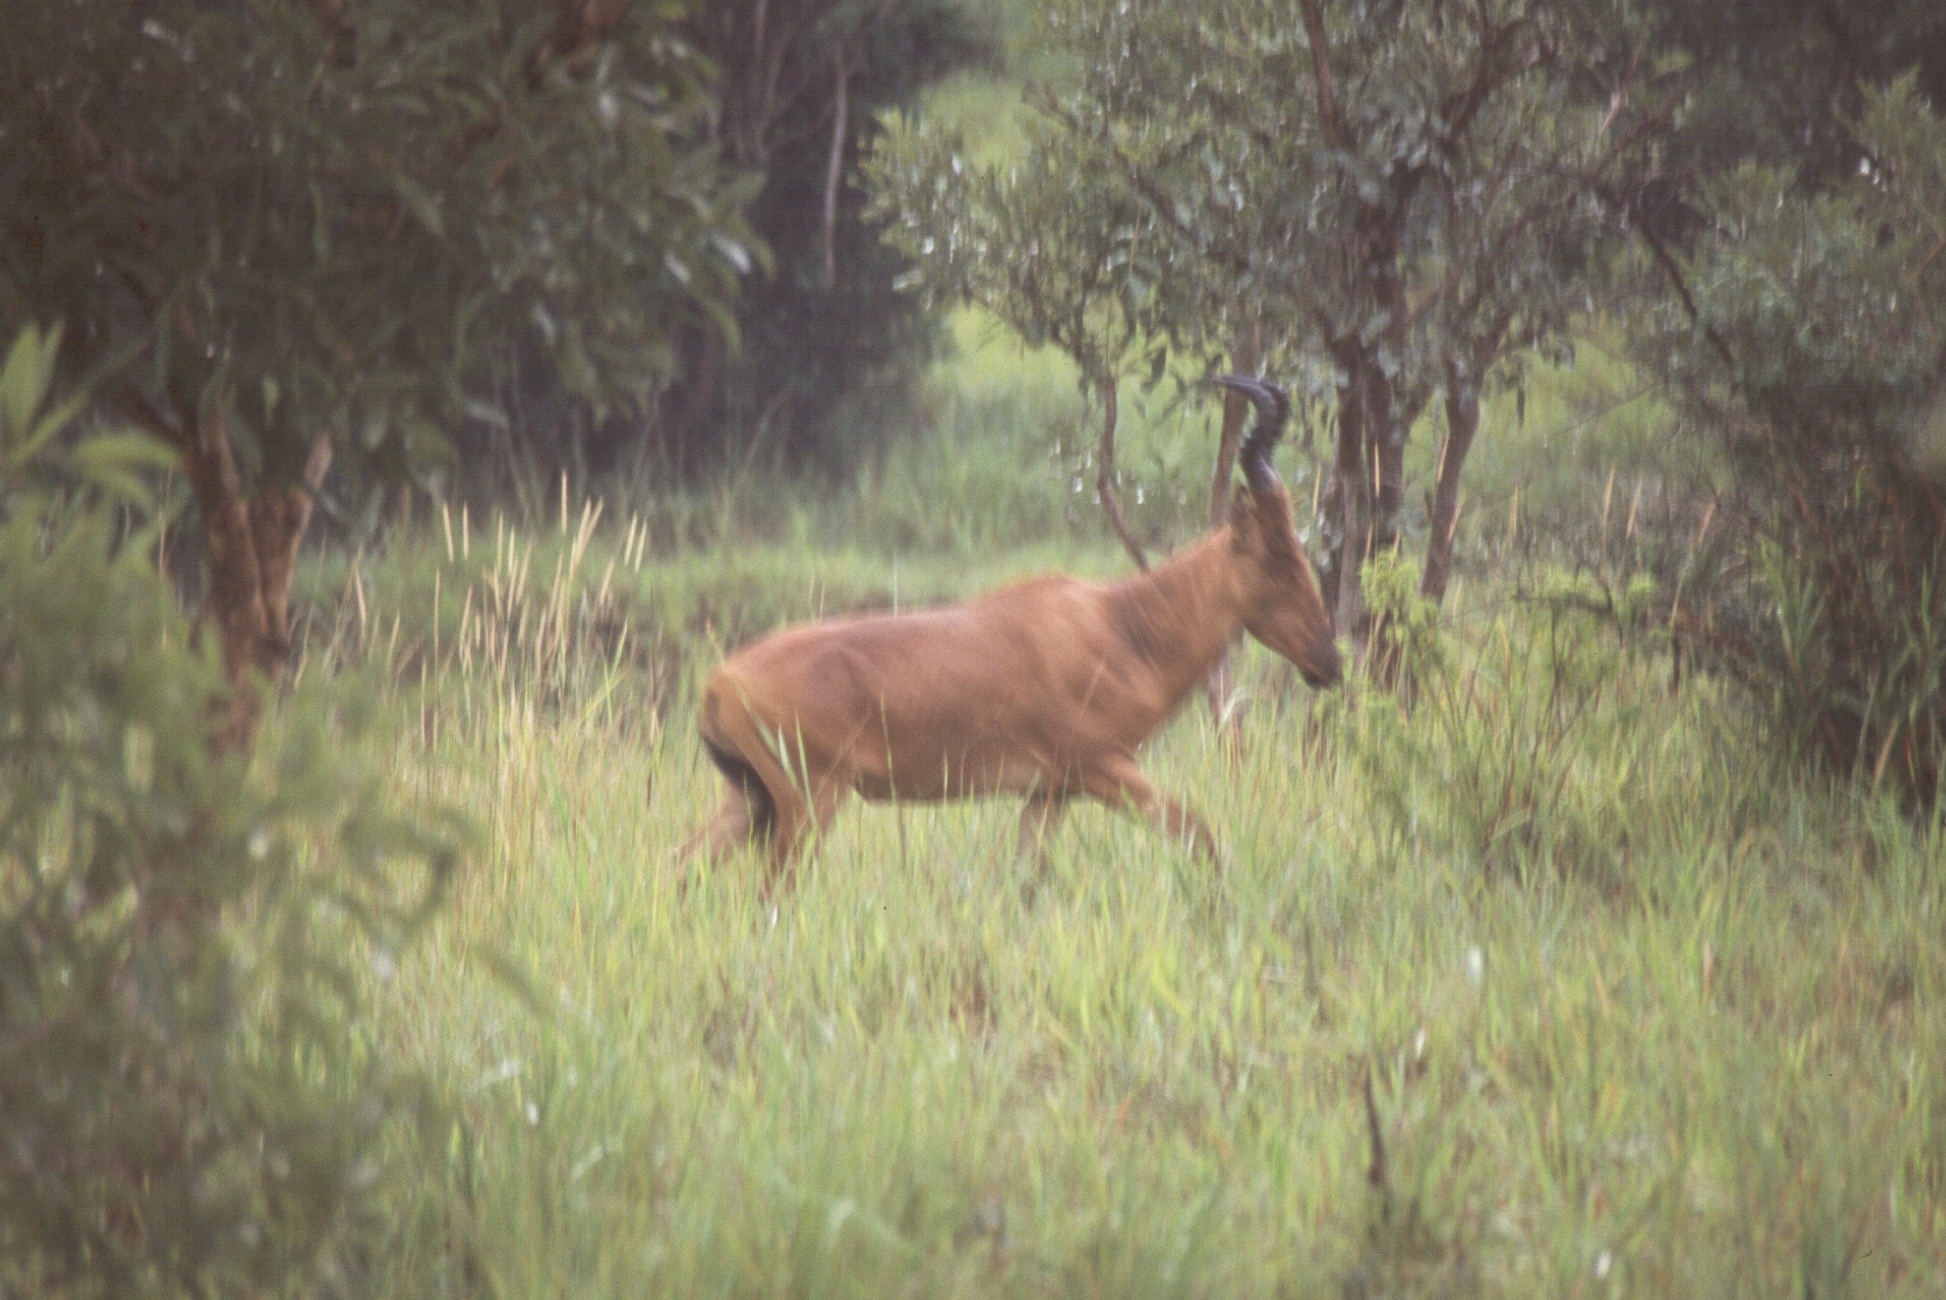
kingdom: Animalia
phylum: Chordata
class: Mammalia
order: Artiodactyla
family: Bovidae
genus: Alcelaphus
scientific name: Alcelaphus buselaphus
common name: Hartebeest
